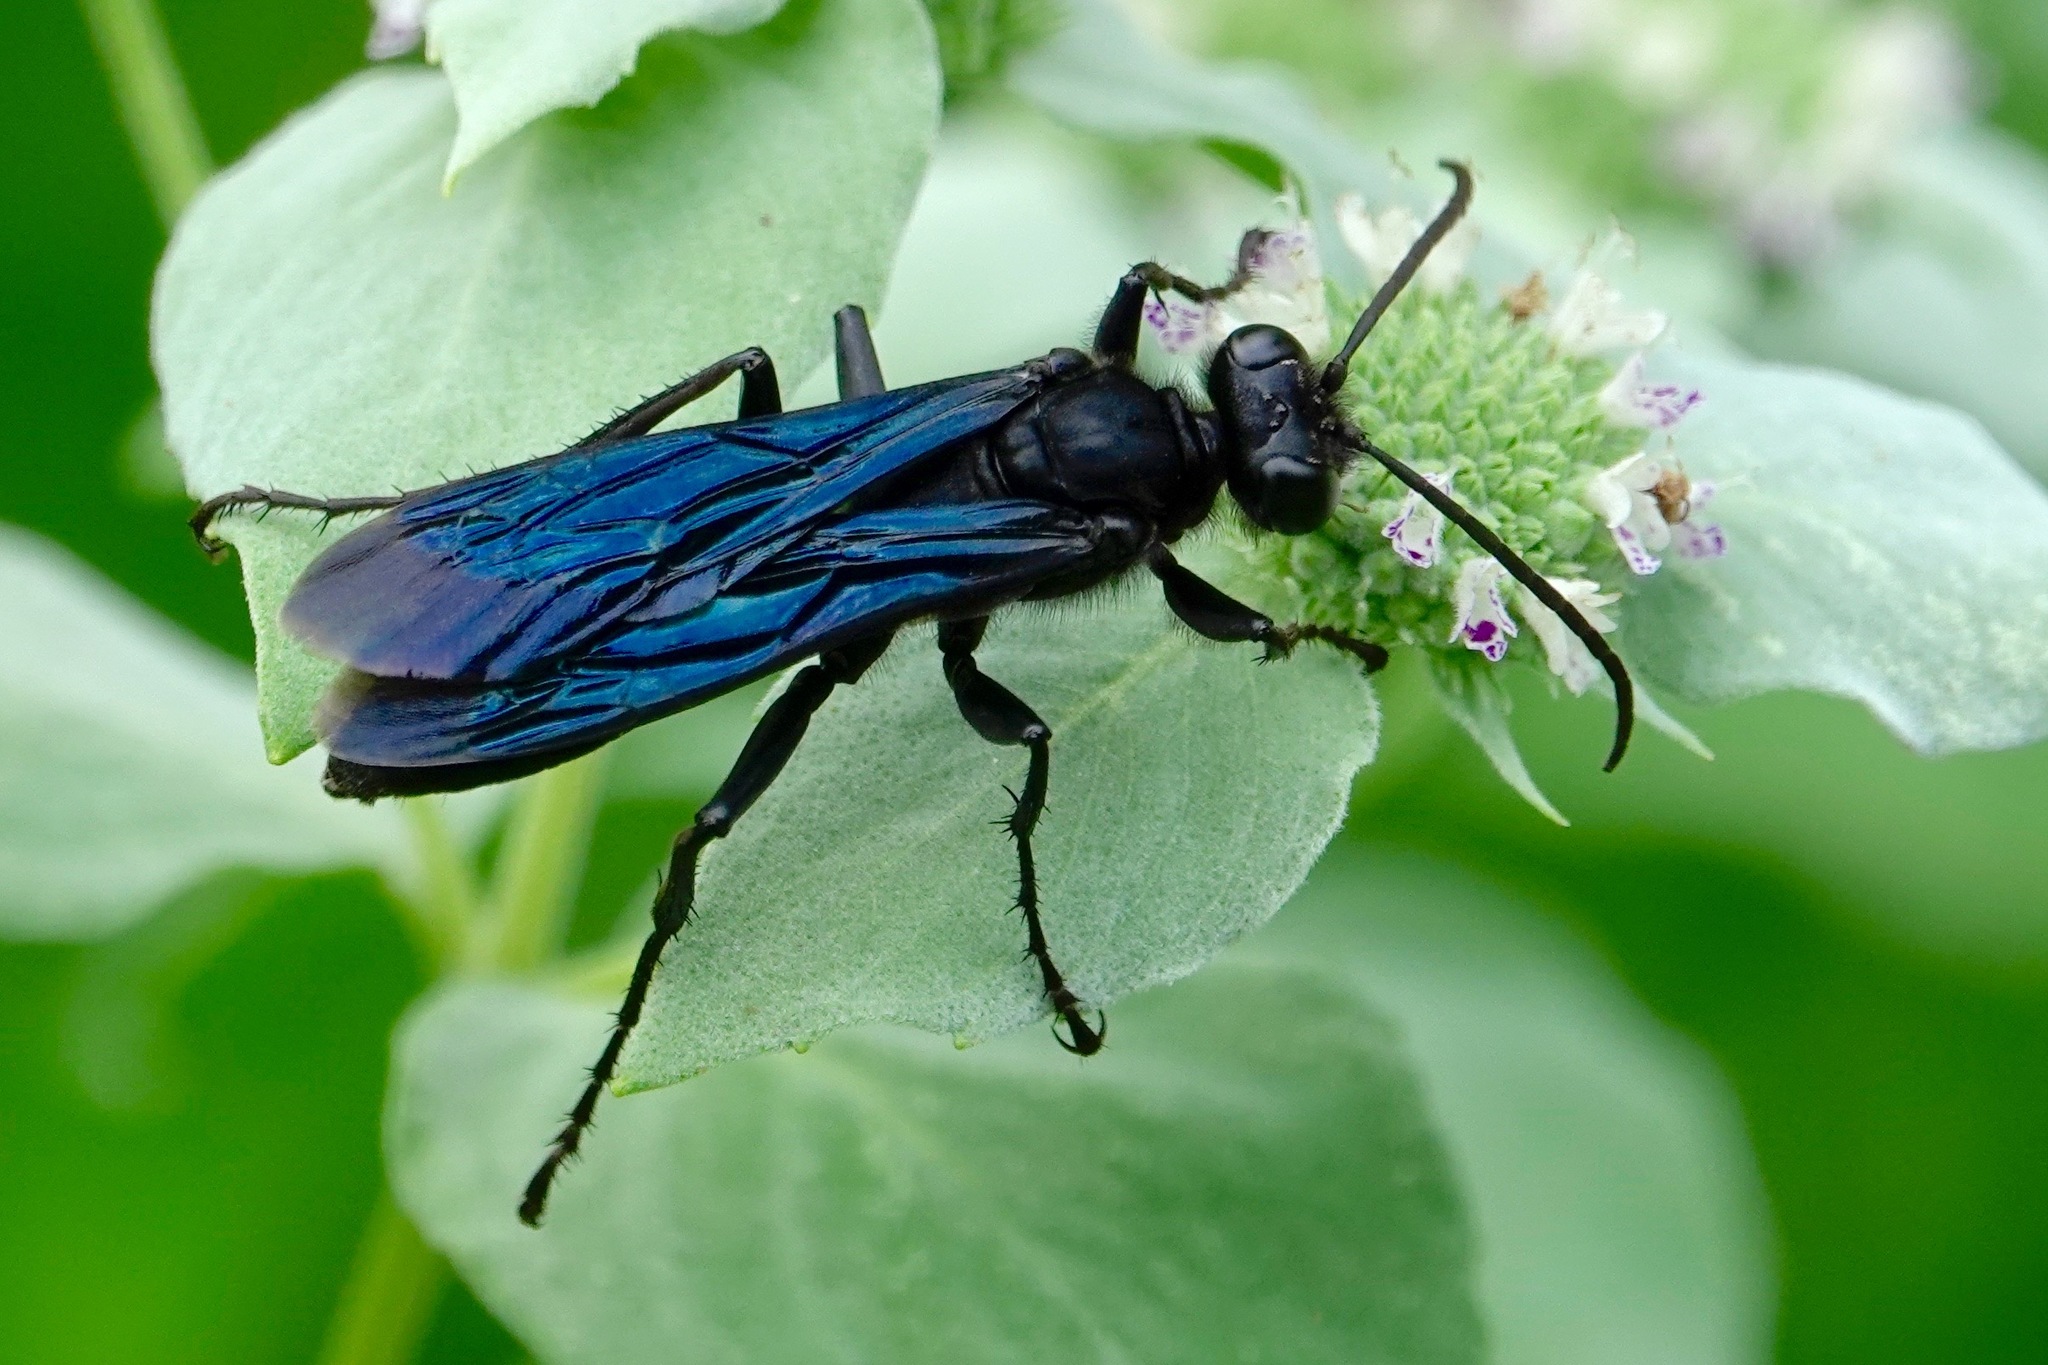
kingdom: Animalia
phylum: Arthropoda
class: Insecta
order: Hymenoptera
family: Sphecidae
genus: Sphex
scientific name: Sphex pensylvanicus
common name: Great black digger wasp
